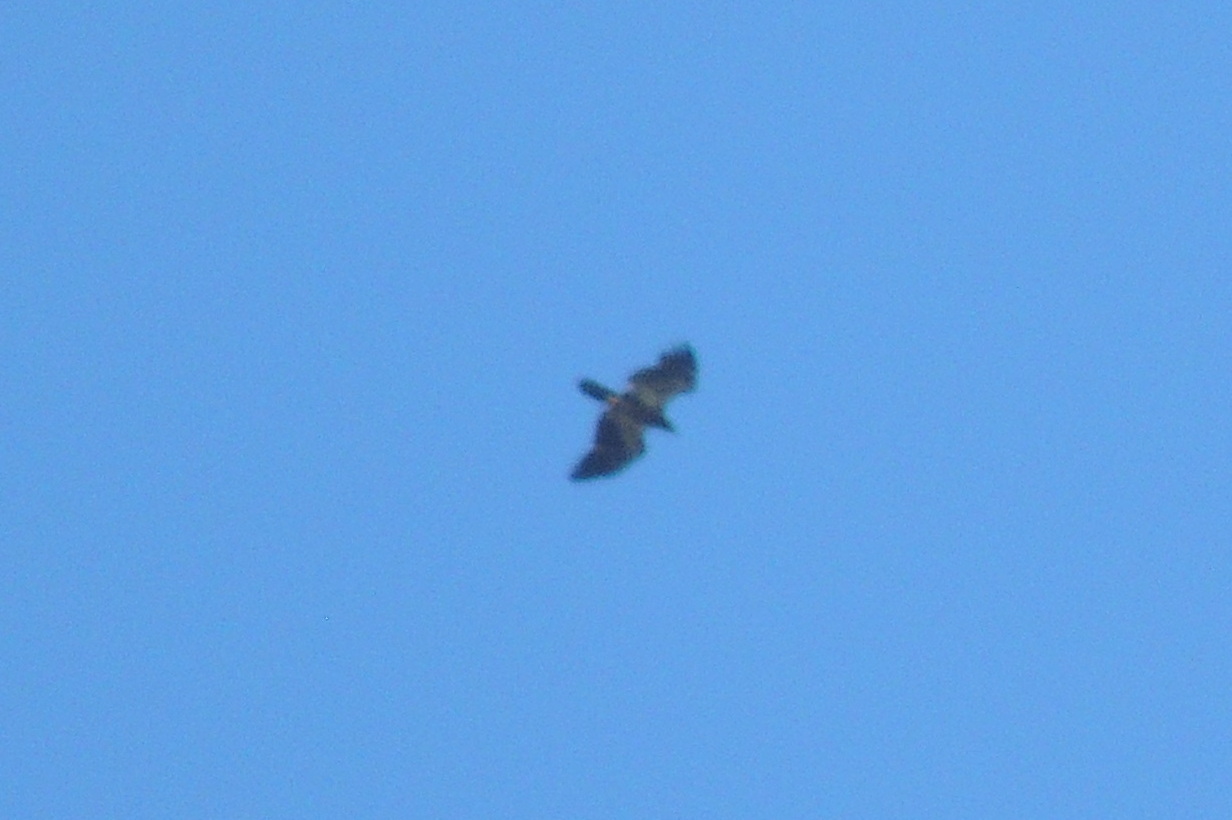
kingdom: Animalia
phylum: Chordata
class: Aves
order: Accipitriformes
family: Accipitridae
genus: Haliaeetus
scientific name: Haliaeetus leucocephalus
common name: Bald eagle
